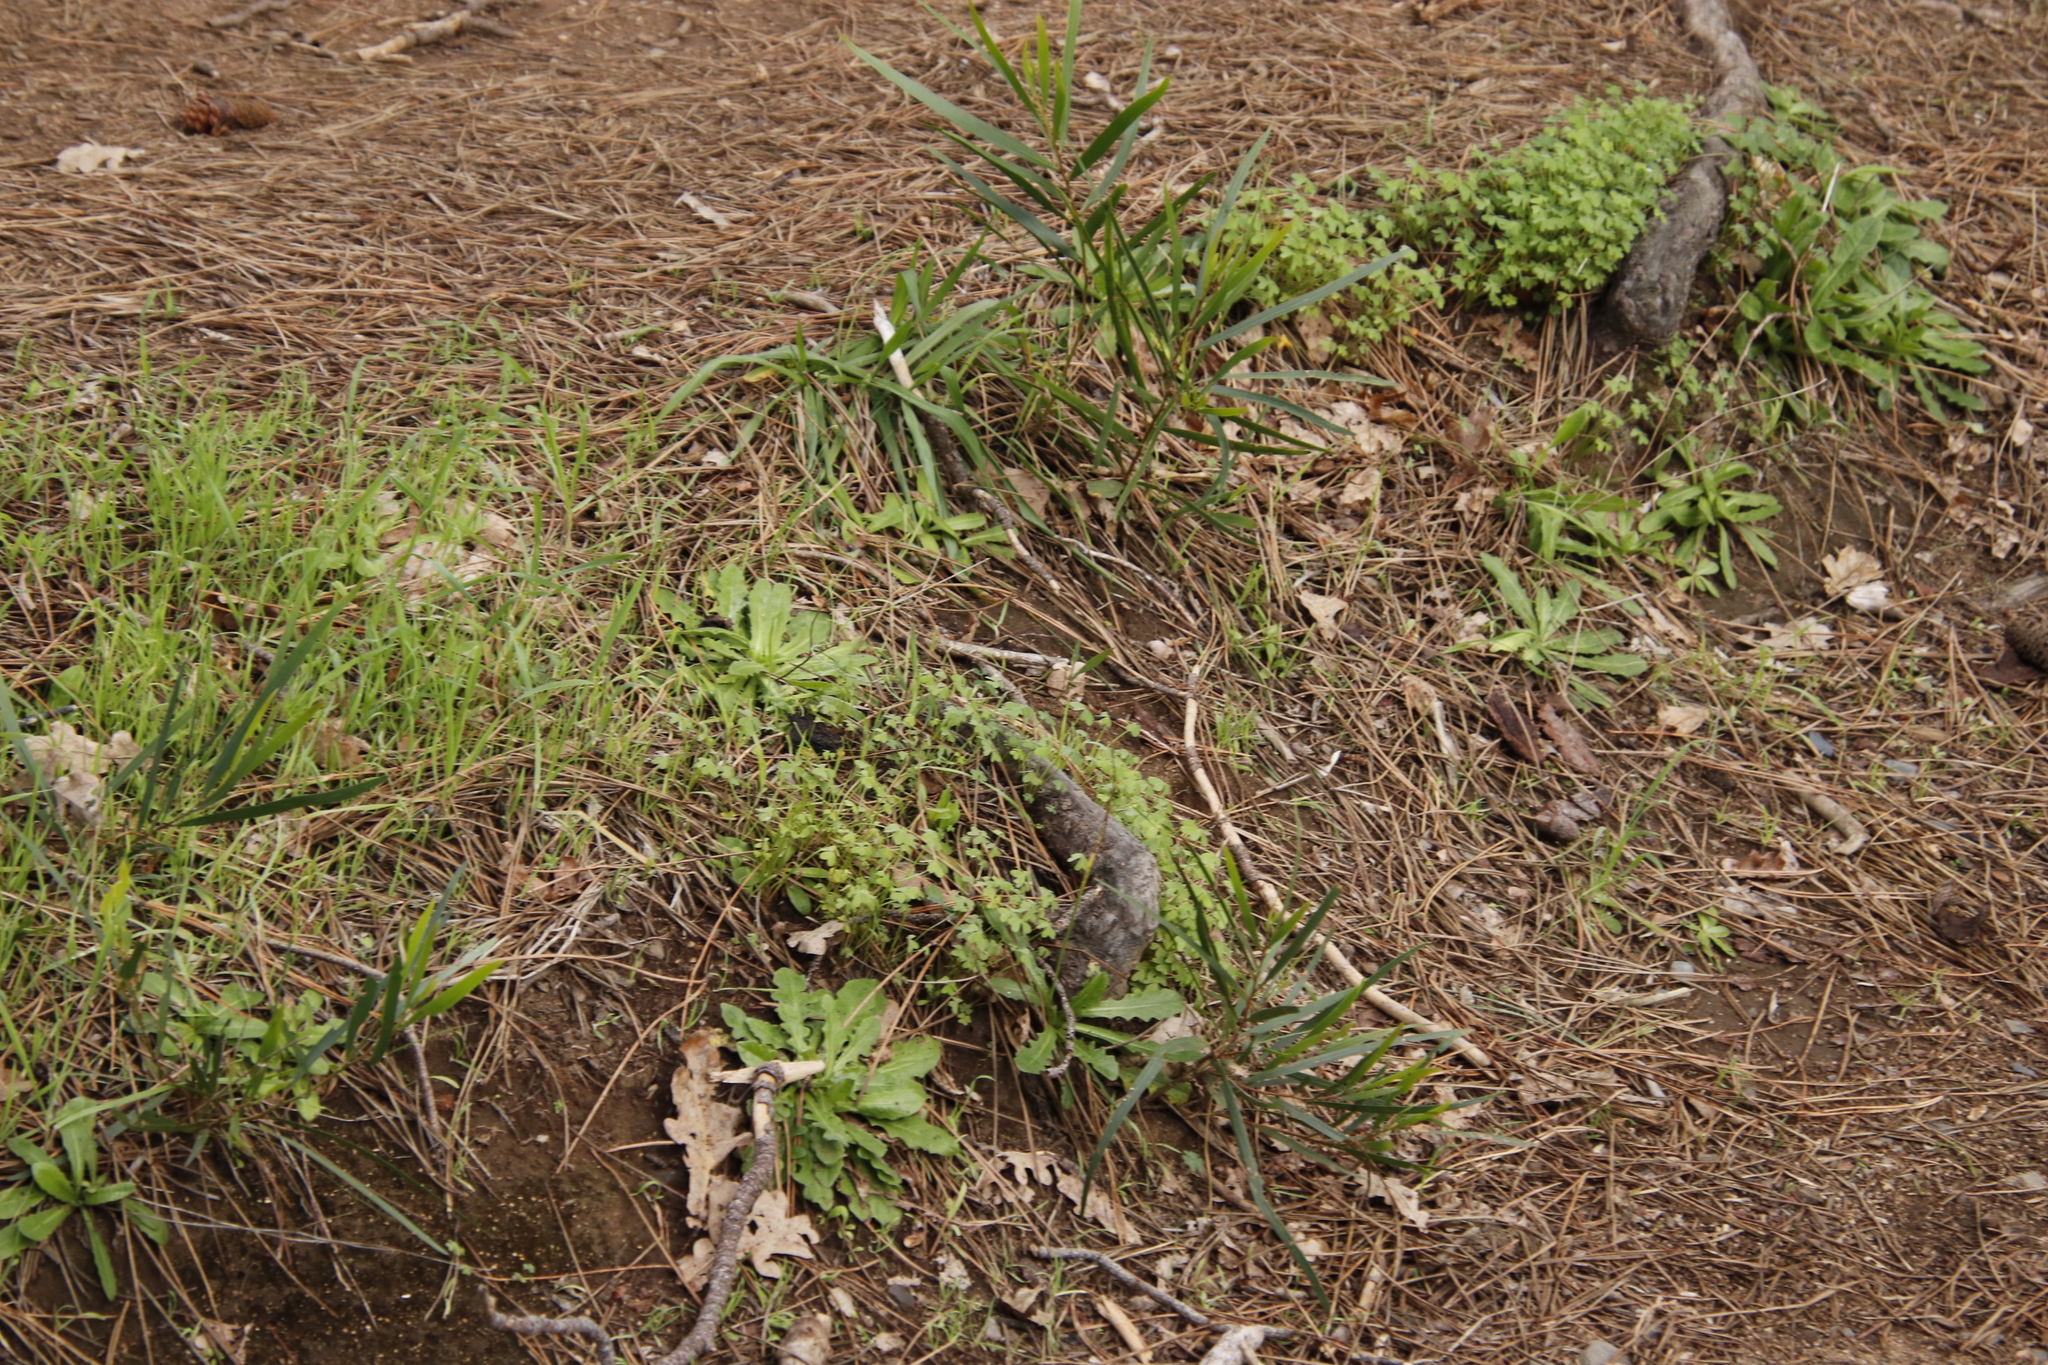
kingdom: Plantae
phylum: Tracheophyta
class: Magnoliopsida
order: Fabales
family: Fabaceae
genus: Acacia
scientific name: Acacia longifolia
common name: Sydney golden wattle
